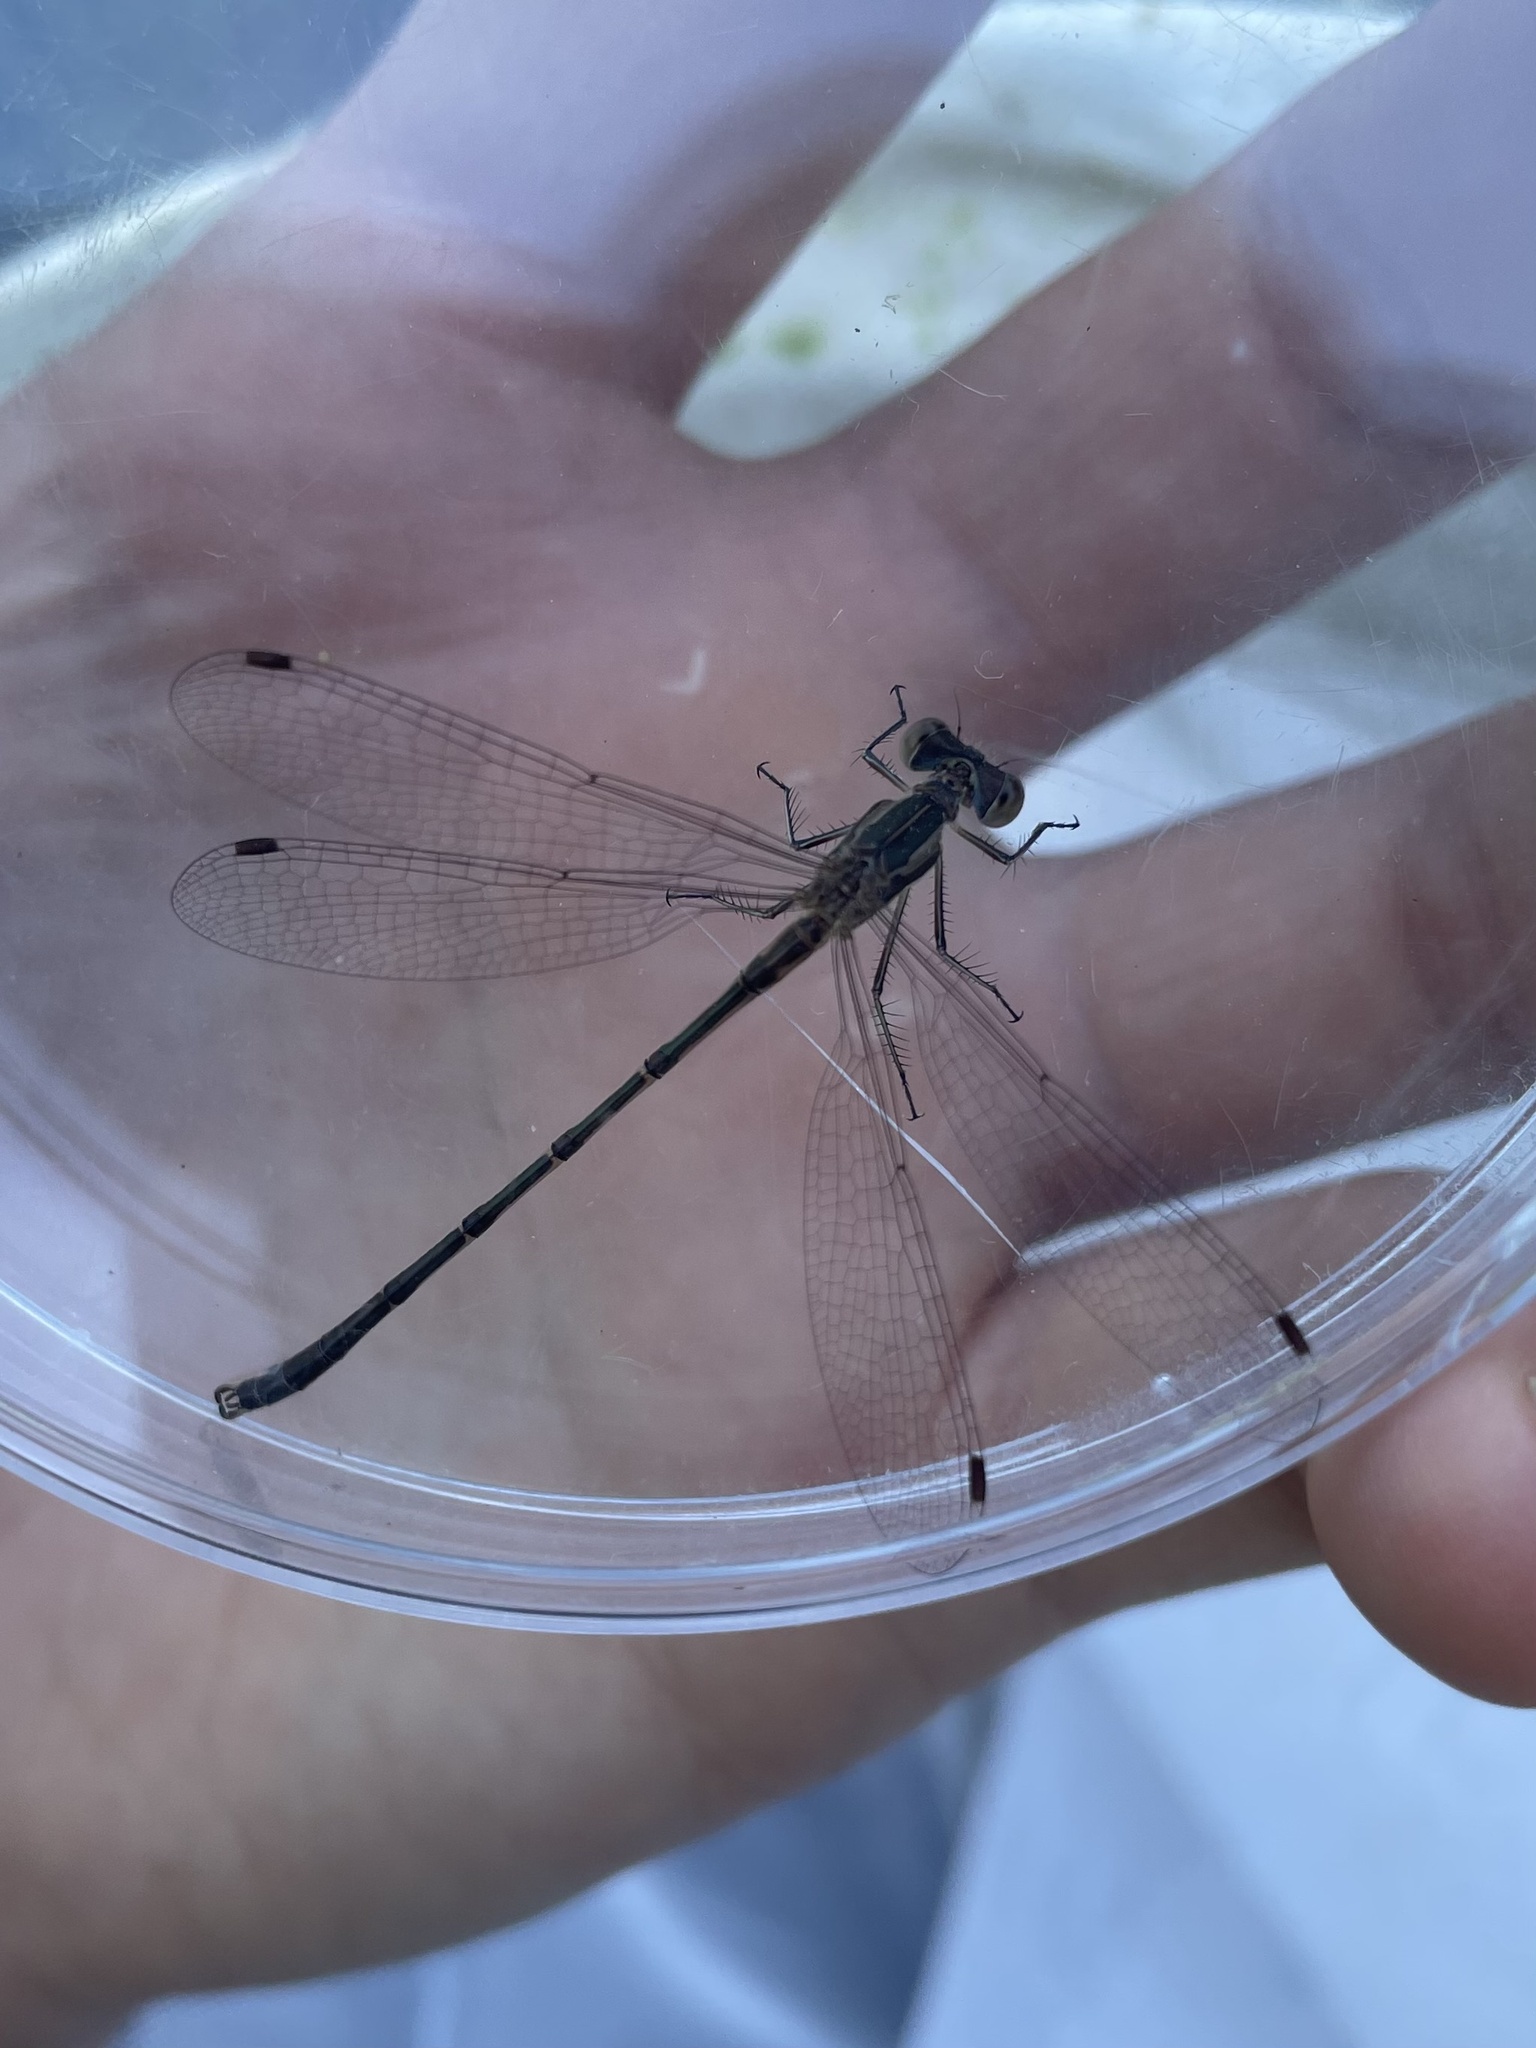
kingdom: Animalia
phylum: Arthropoda
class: Insecta
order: Odonata
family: Lestidae
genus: Lestes
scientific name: Lestes australis
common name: Southern spreadwing
